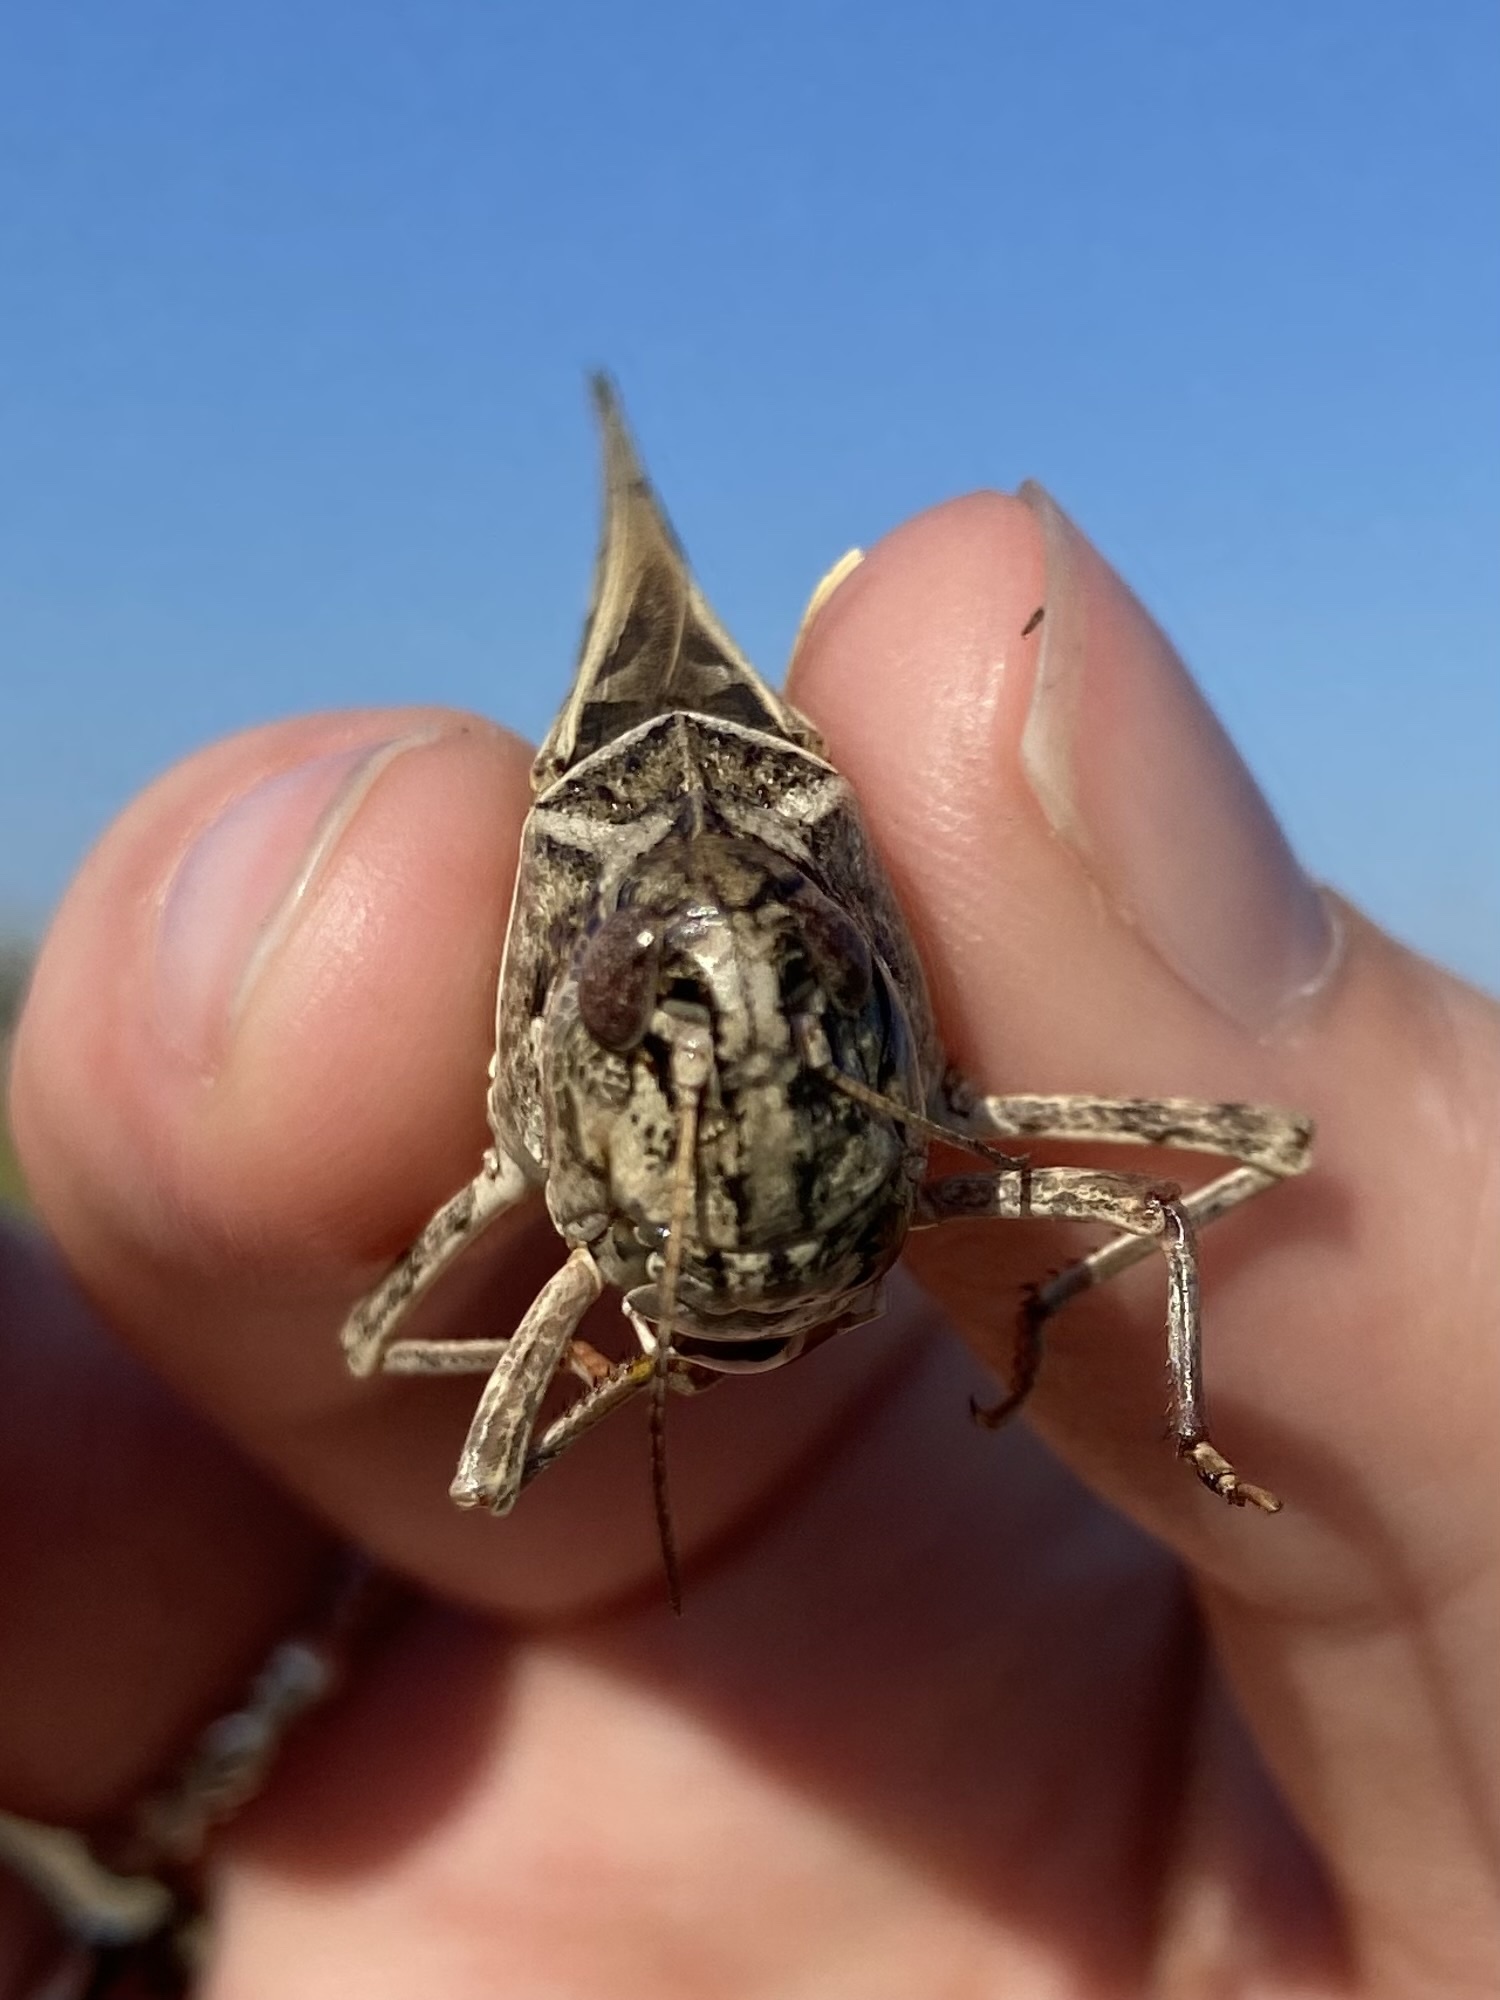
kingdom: Animalia
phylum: Arthropoda
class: Insecta
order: Orthoptera
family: Acrididae
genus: Hippiscus
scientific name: Hippiscus ocelote
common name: Wrinkled grasshopper
